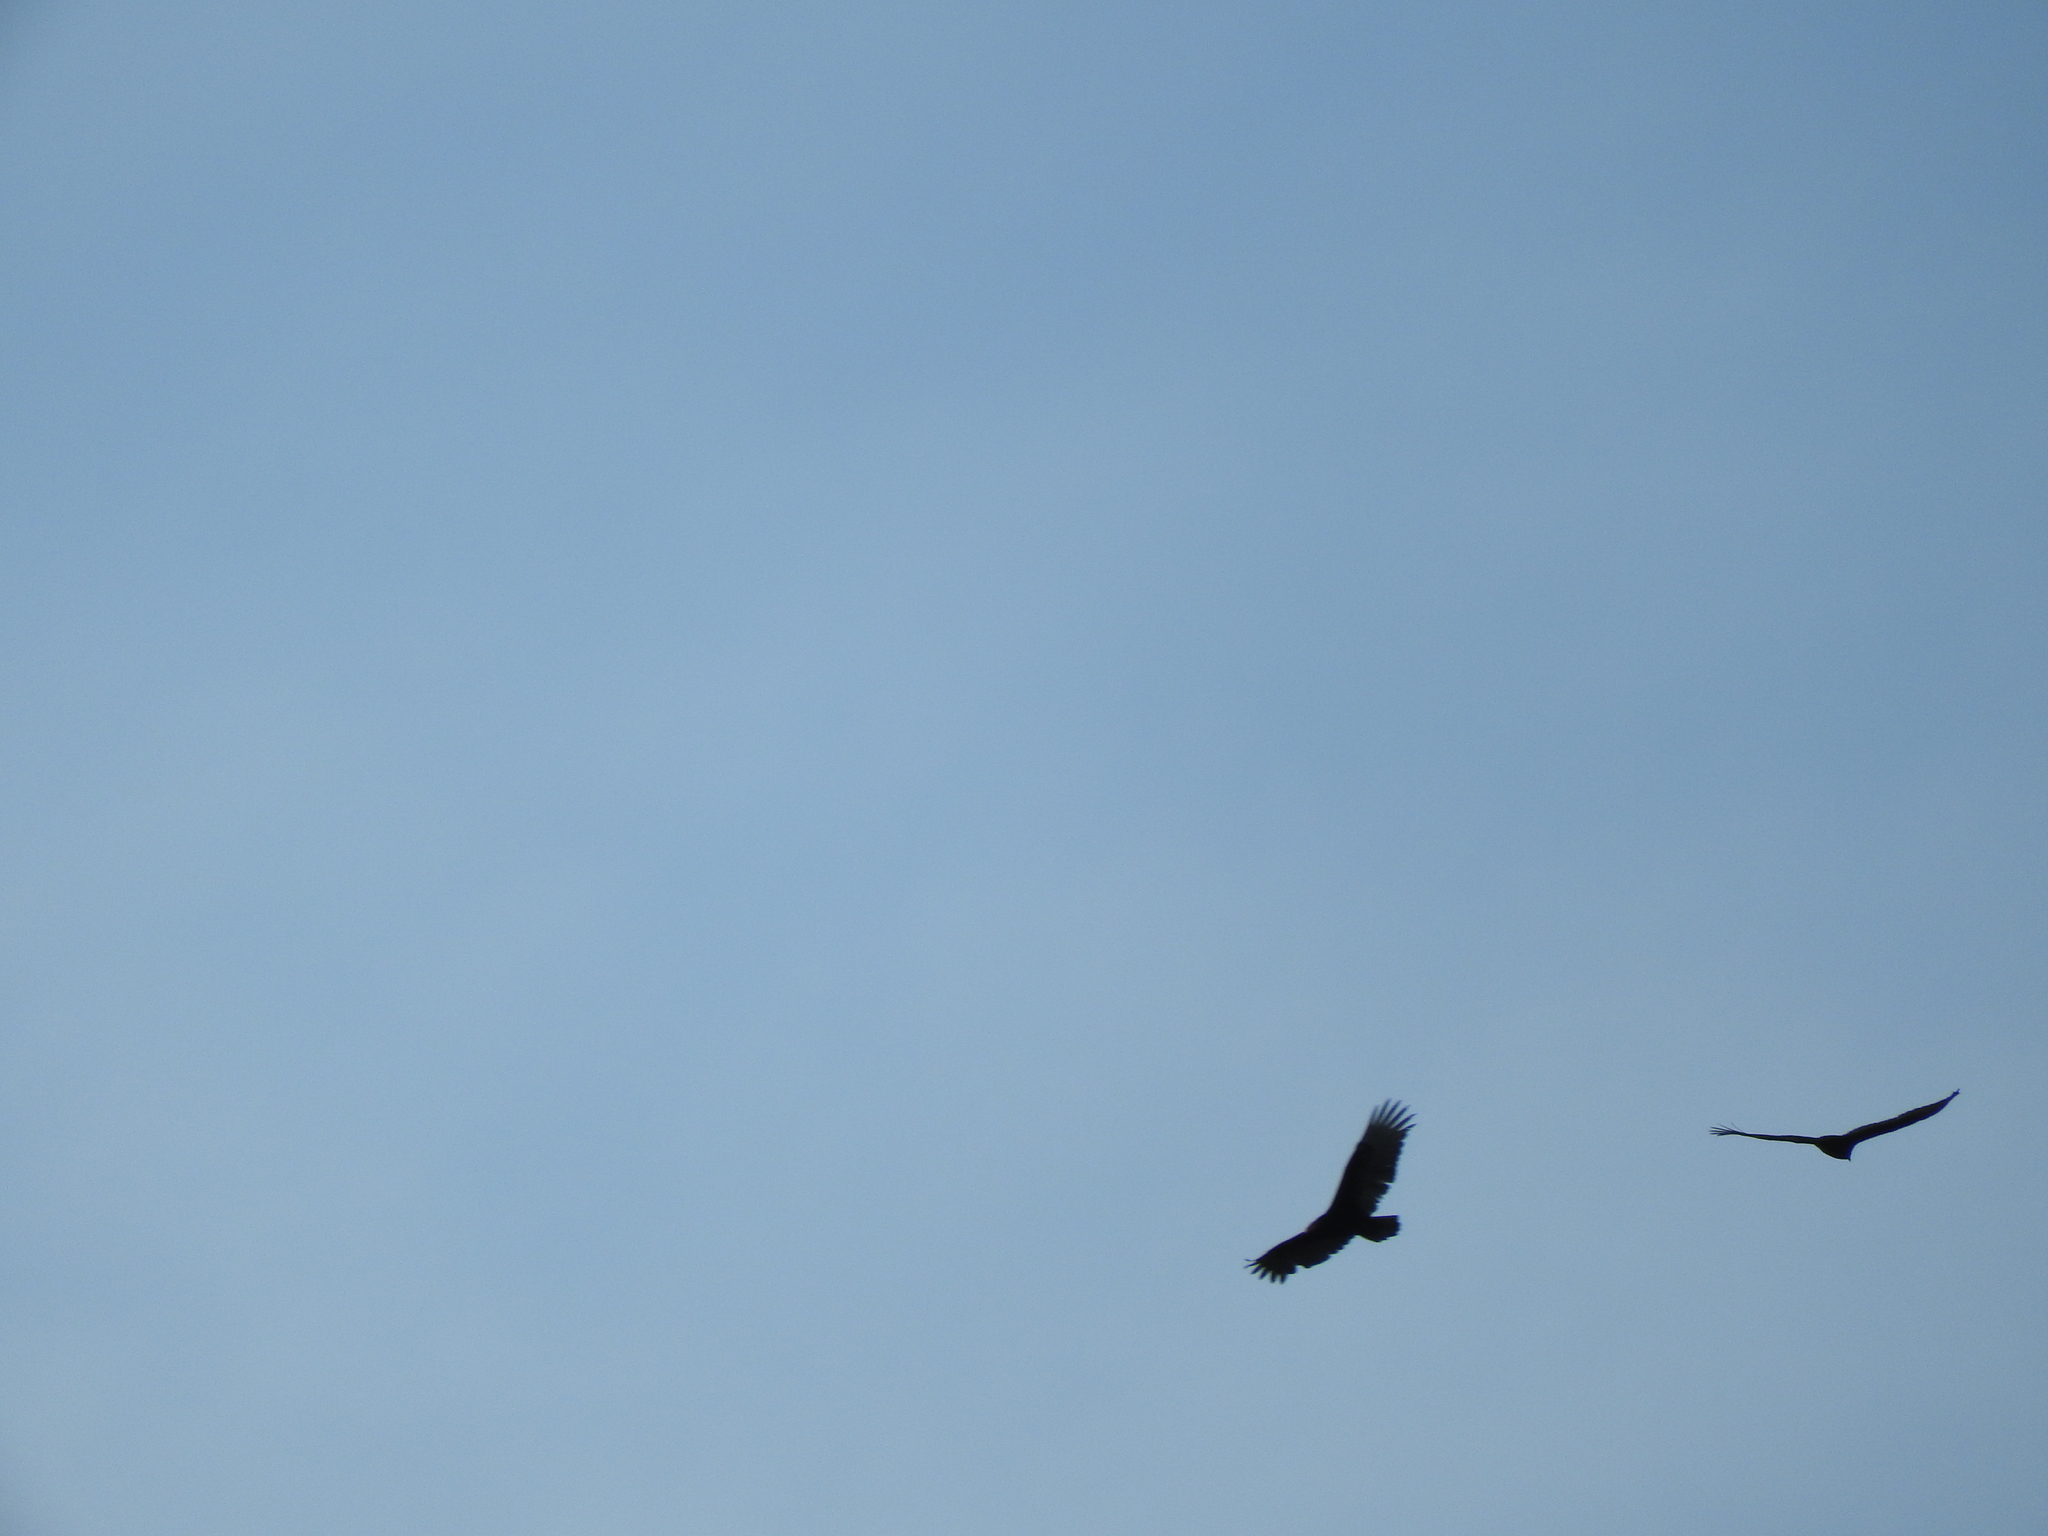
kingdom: Animalia
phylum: Chordata
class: Aves
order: Accipitriformes
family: Cathartidae
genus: Cathartes
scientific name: Cathartes aura
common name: Turkey vulture
